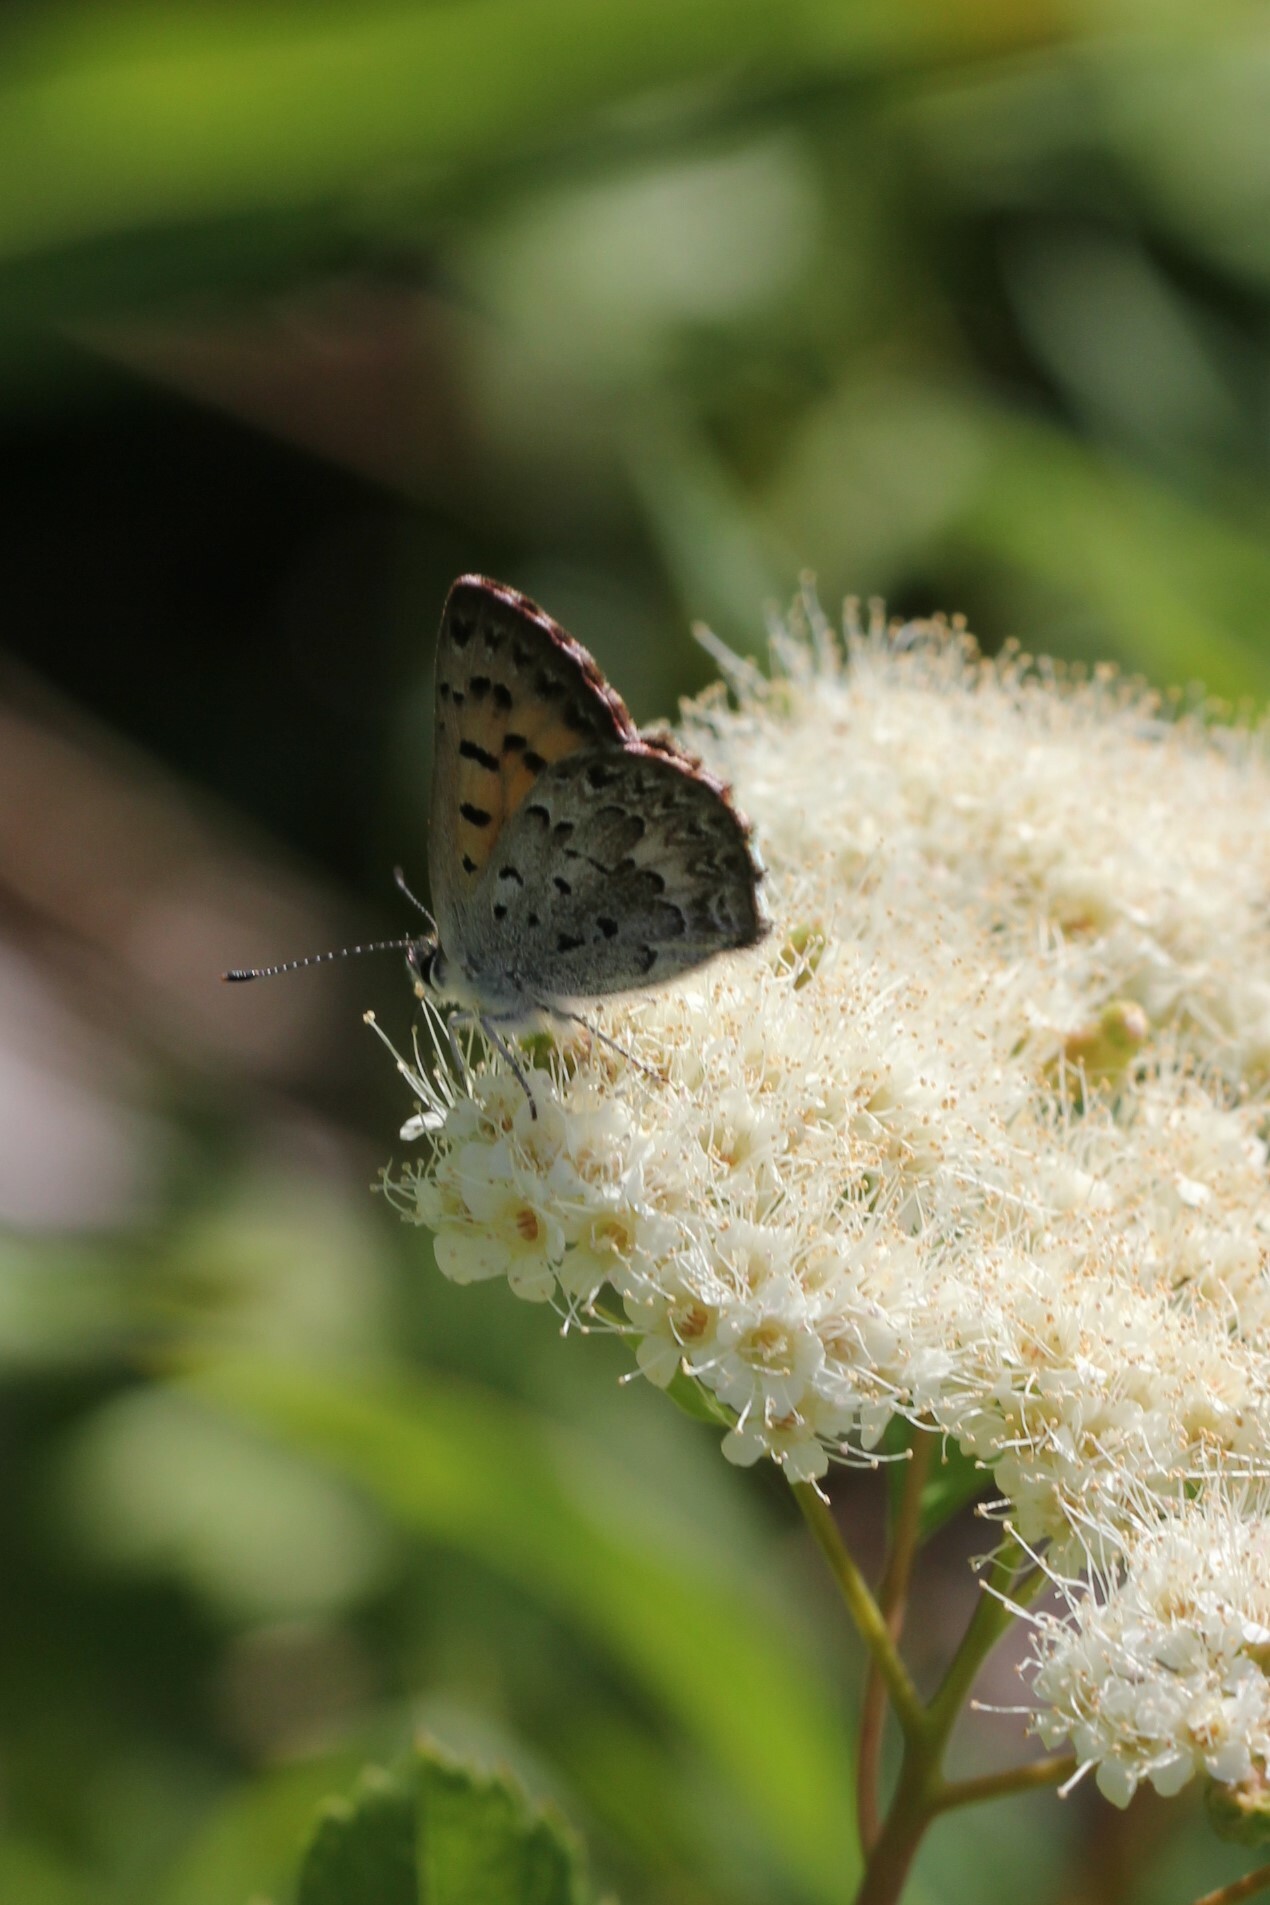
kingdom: Animalia
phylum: Arthropoda
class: Insecta
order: Lepidoptera
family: Lycaenidae
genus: Tharsalea
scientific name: Tharsalea mariposa
